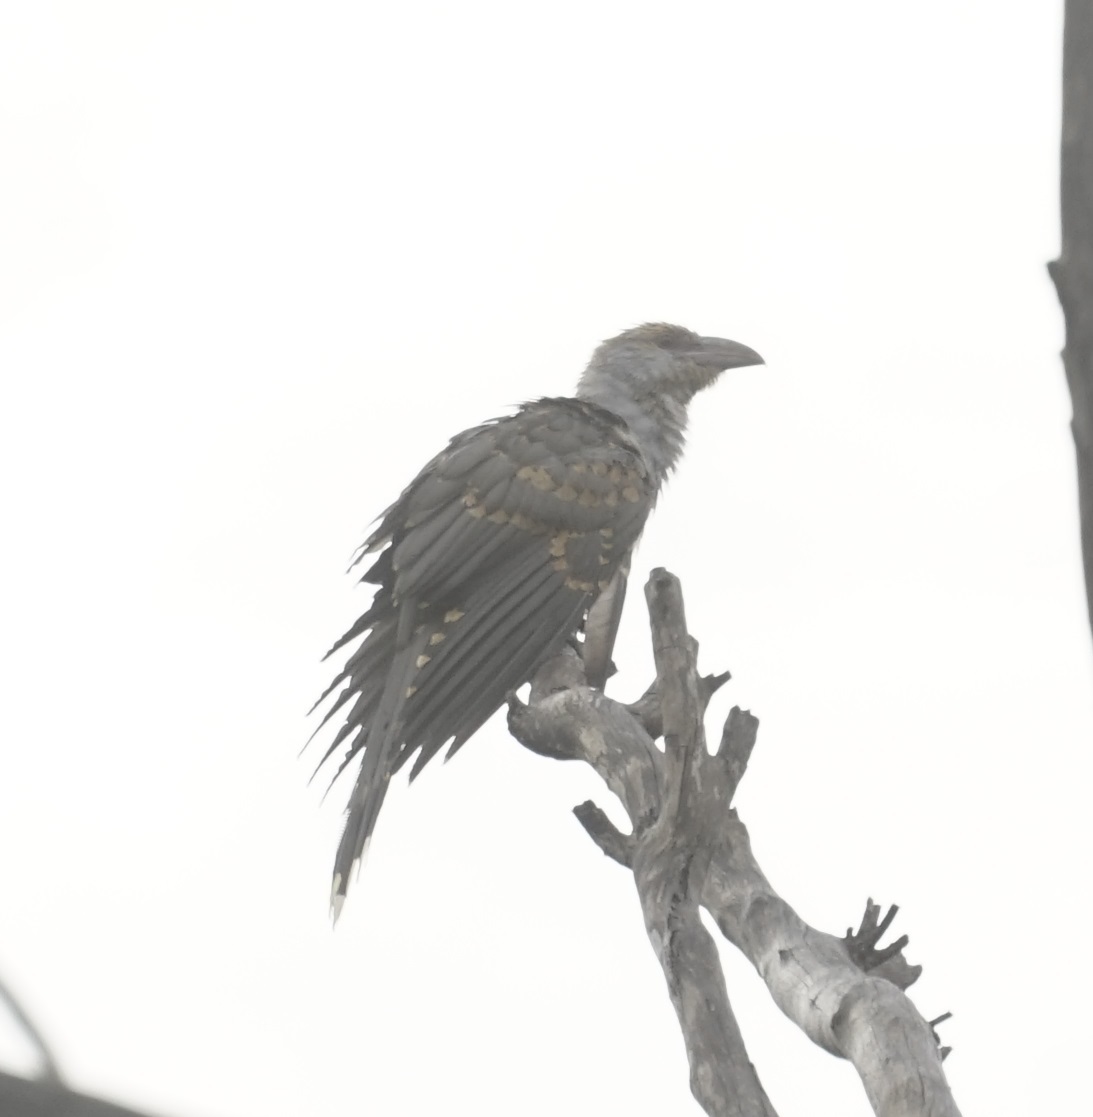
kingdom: Animalia
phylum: Chordata
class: Aves
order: Cuculiformes
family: Cuculidae
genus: Scythrops
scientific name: Scythrops novaehollandiae
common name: Channel-billed cuckoo
